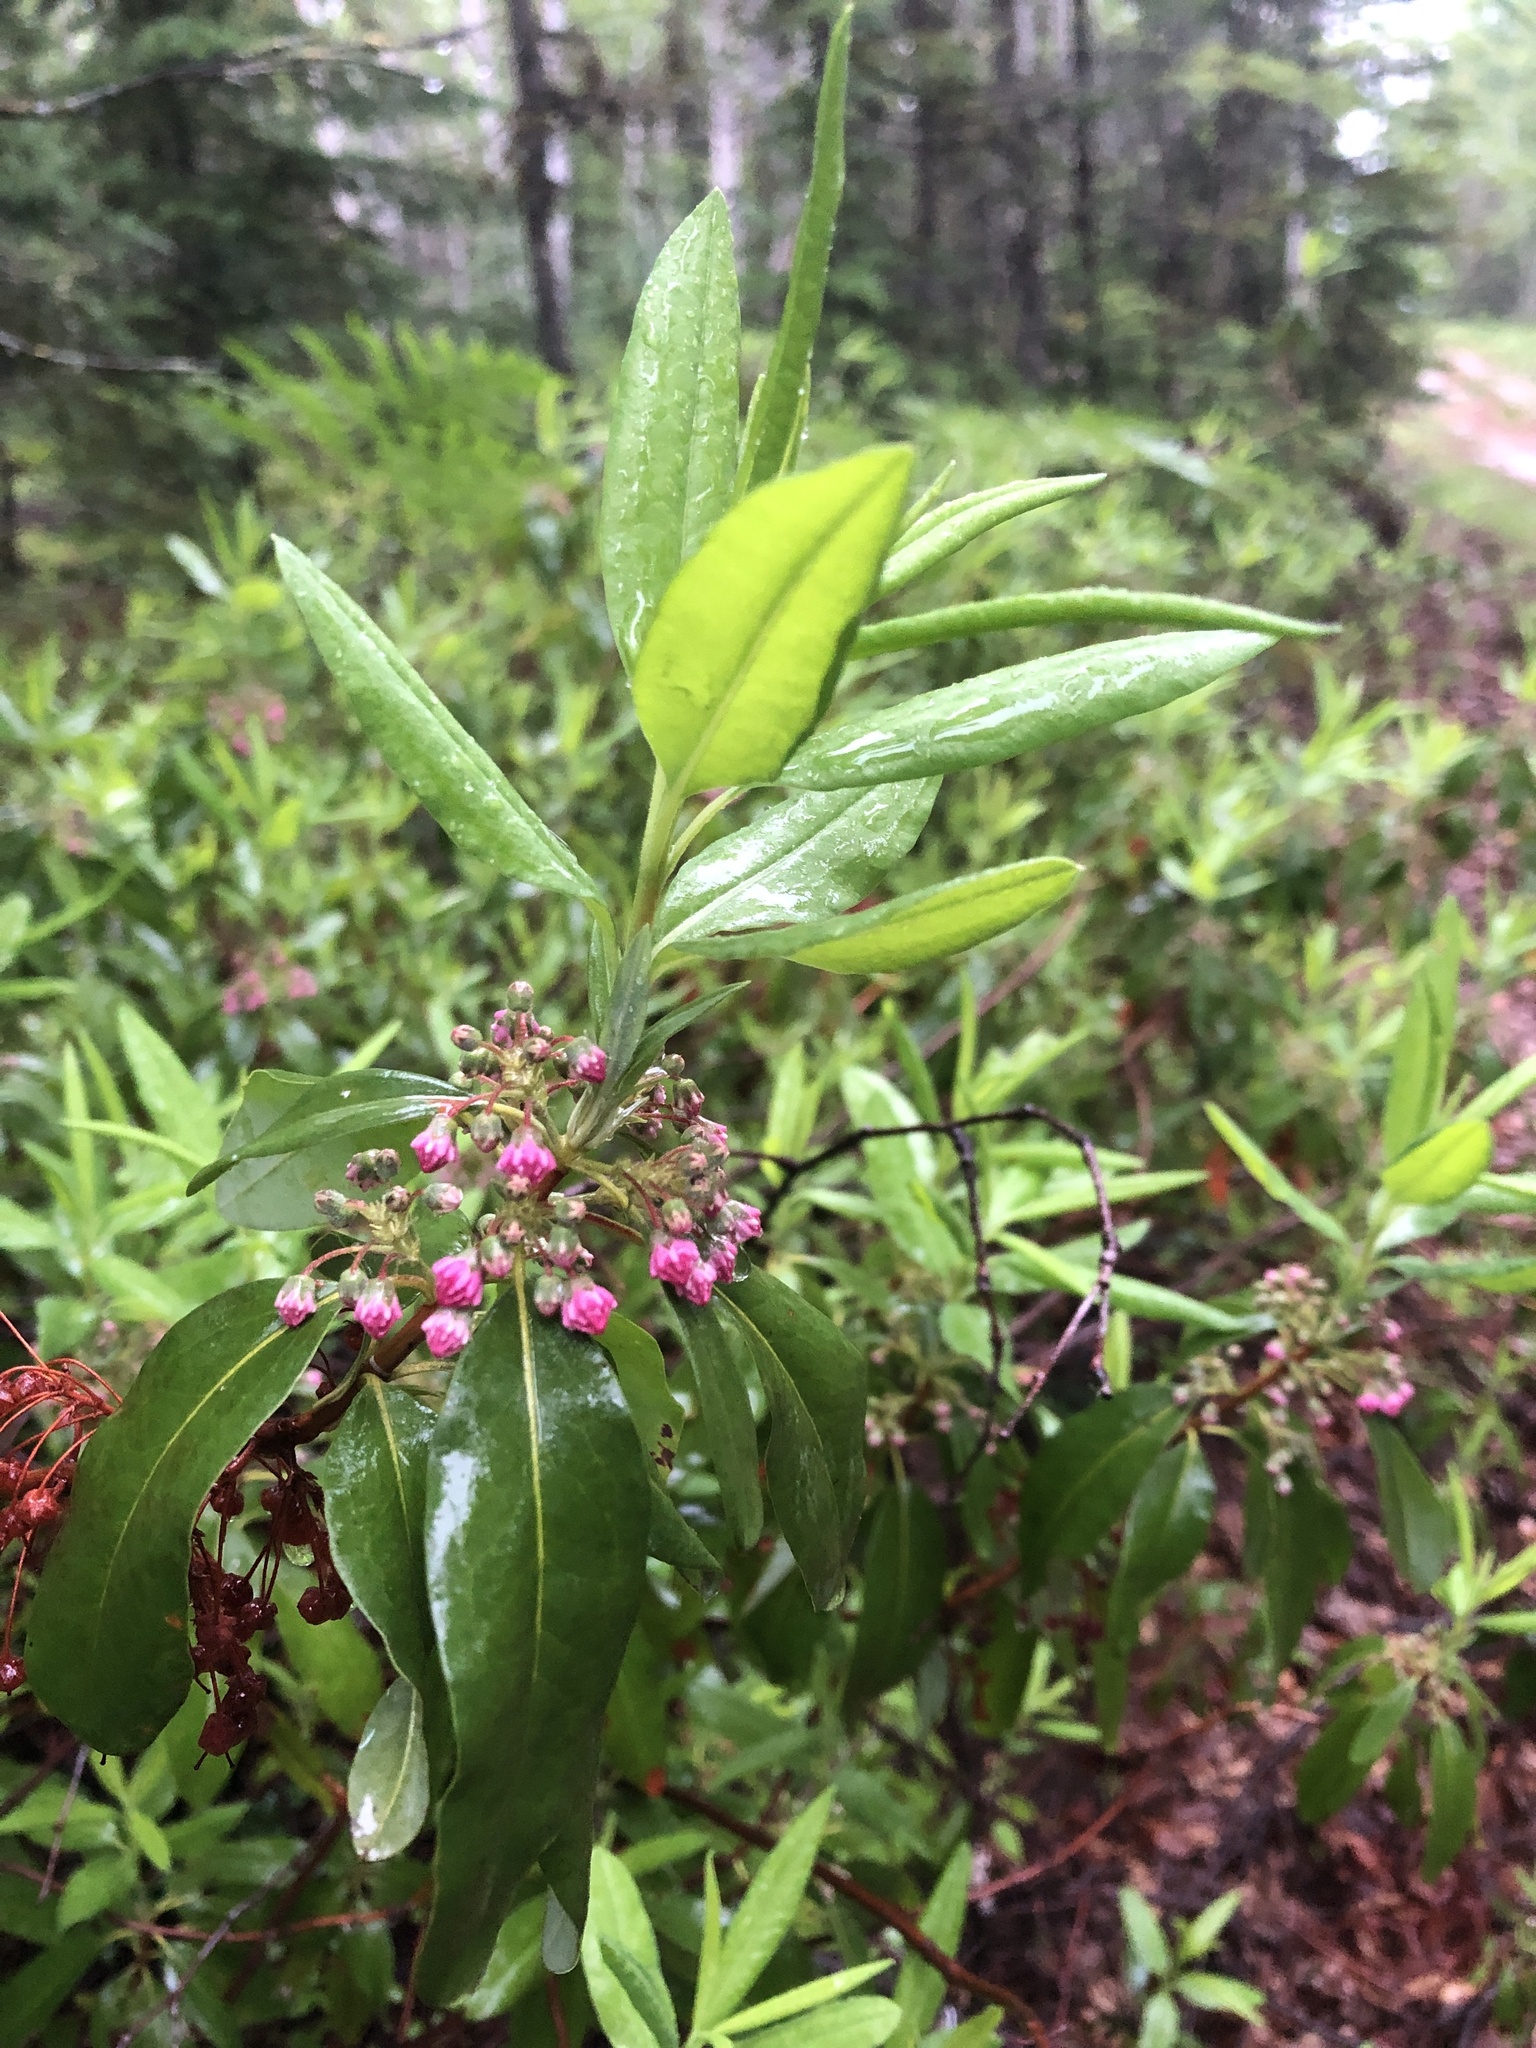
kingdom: Plantae
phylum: Tracheophyta
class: Magnoliopsida
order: Ericales
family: Ericaceae
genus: Kalmia
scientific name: Kalmia angustifolia
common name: Sheep-laurel
